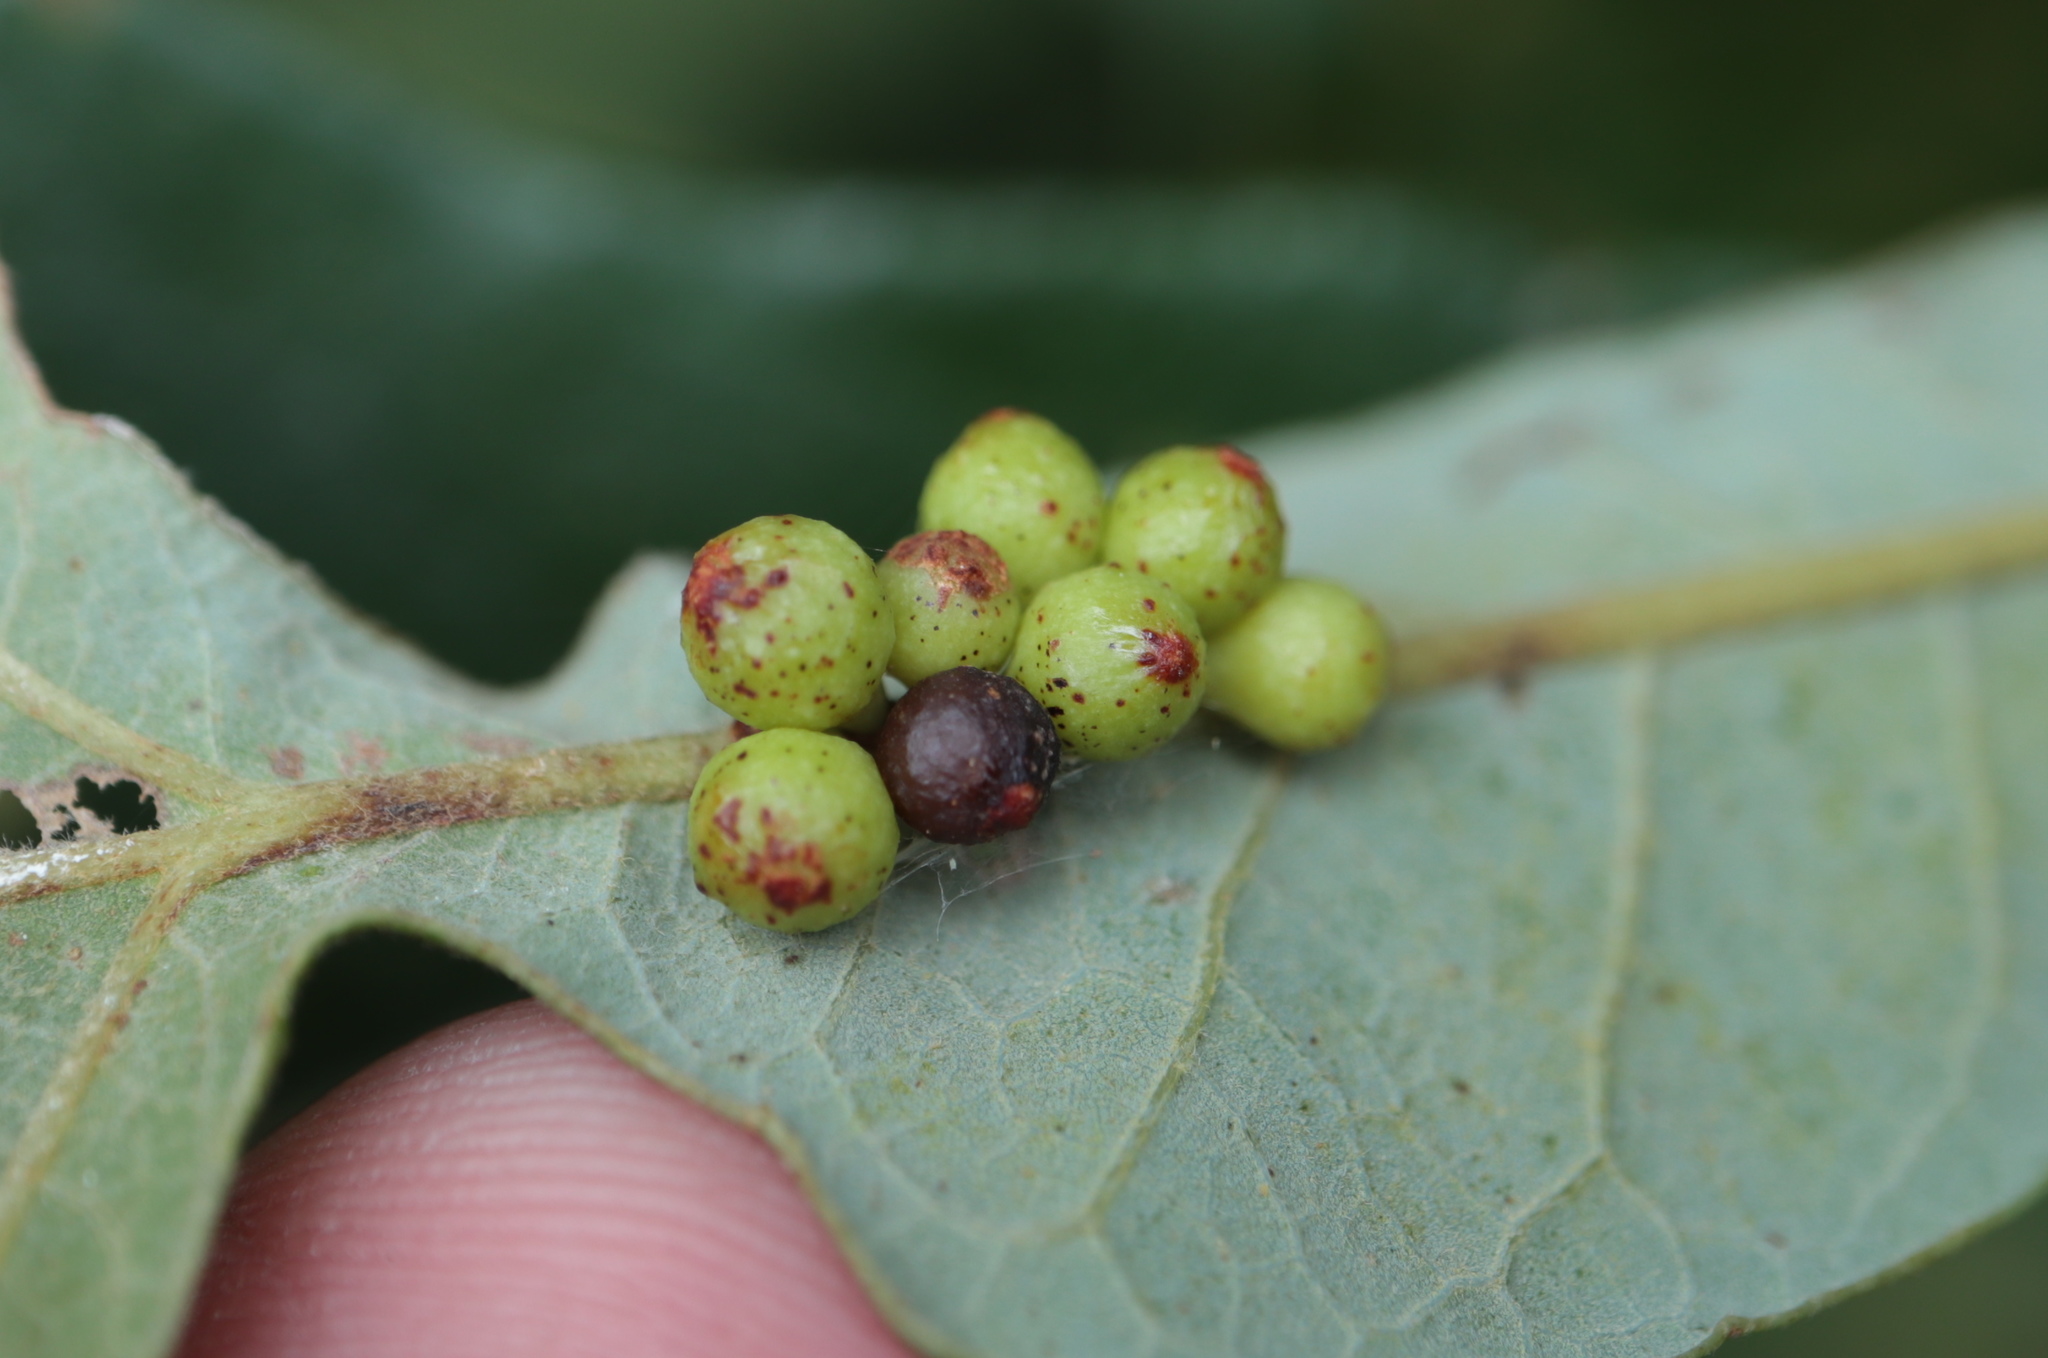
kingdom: Animalia
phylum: Arthropoda
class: Insecta
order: Hymenoptera
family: Cynipidae
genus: Andricus
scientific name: Andricus
